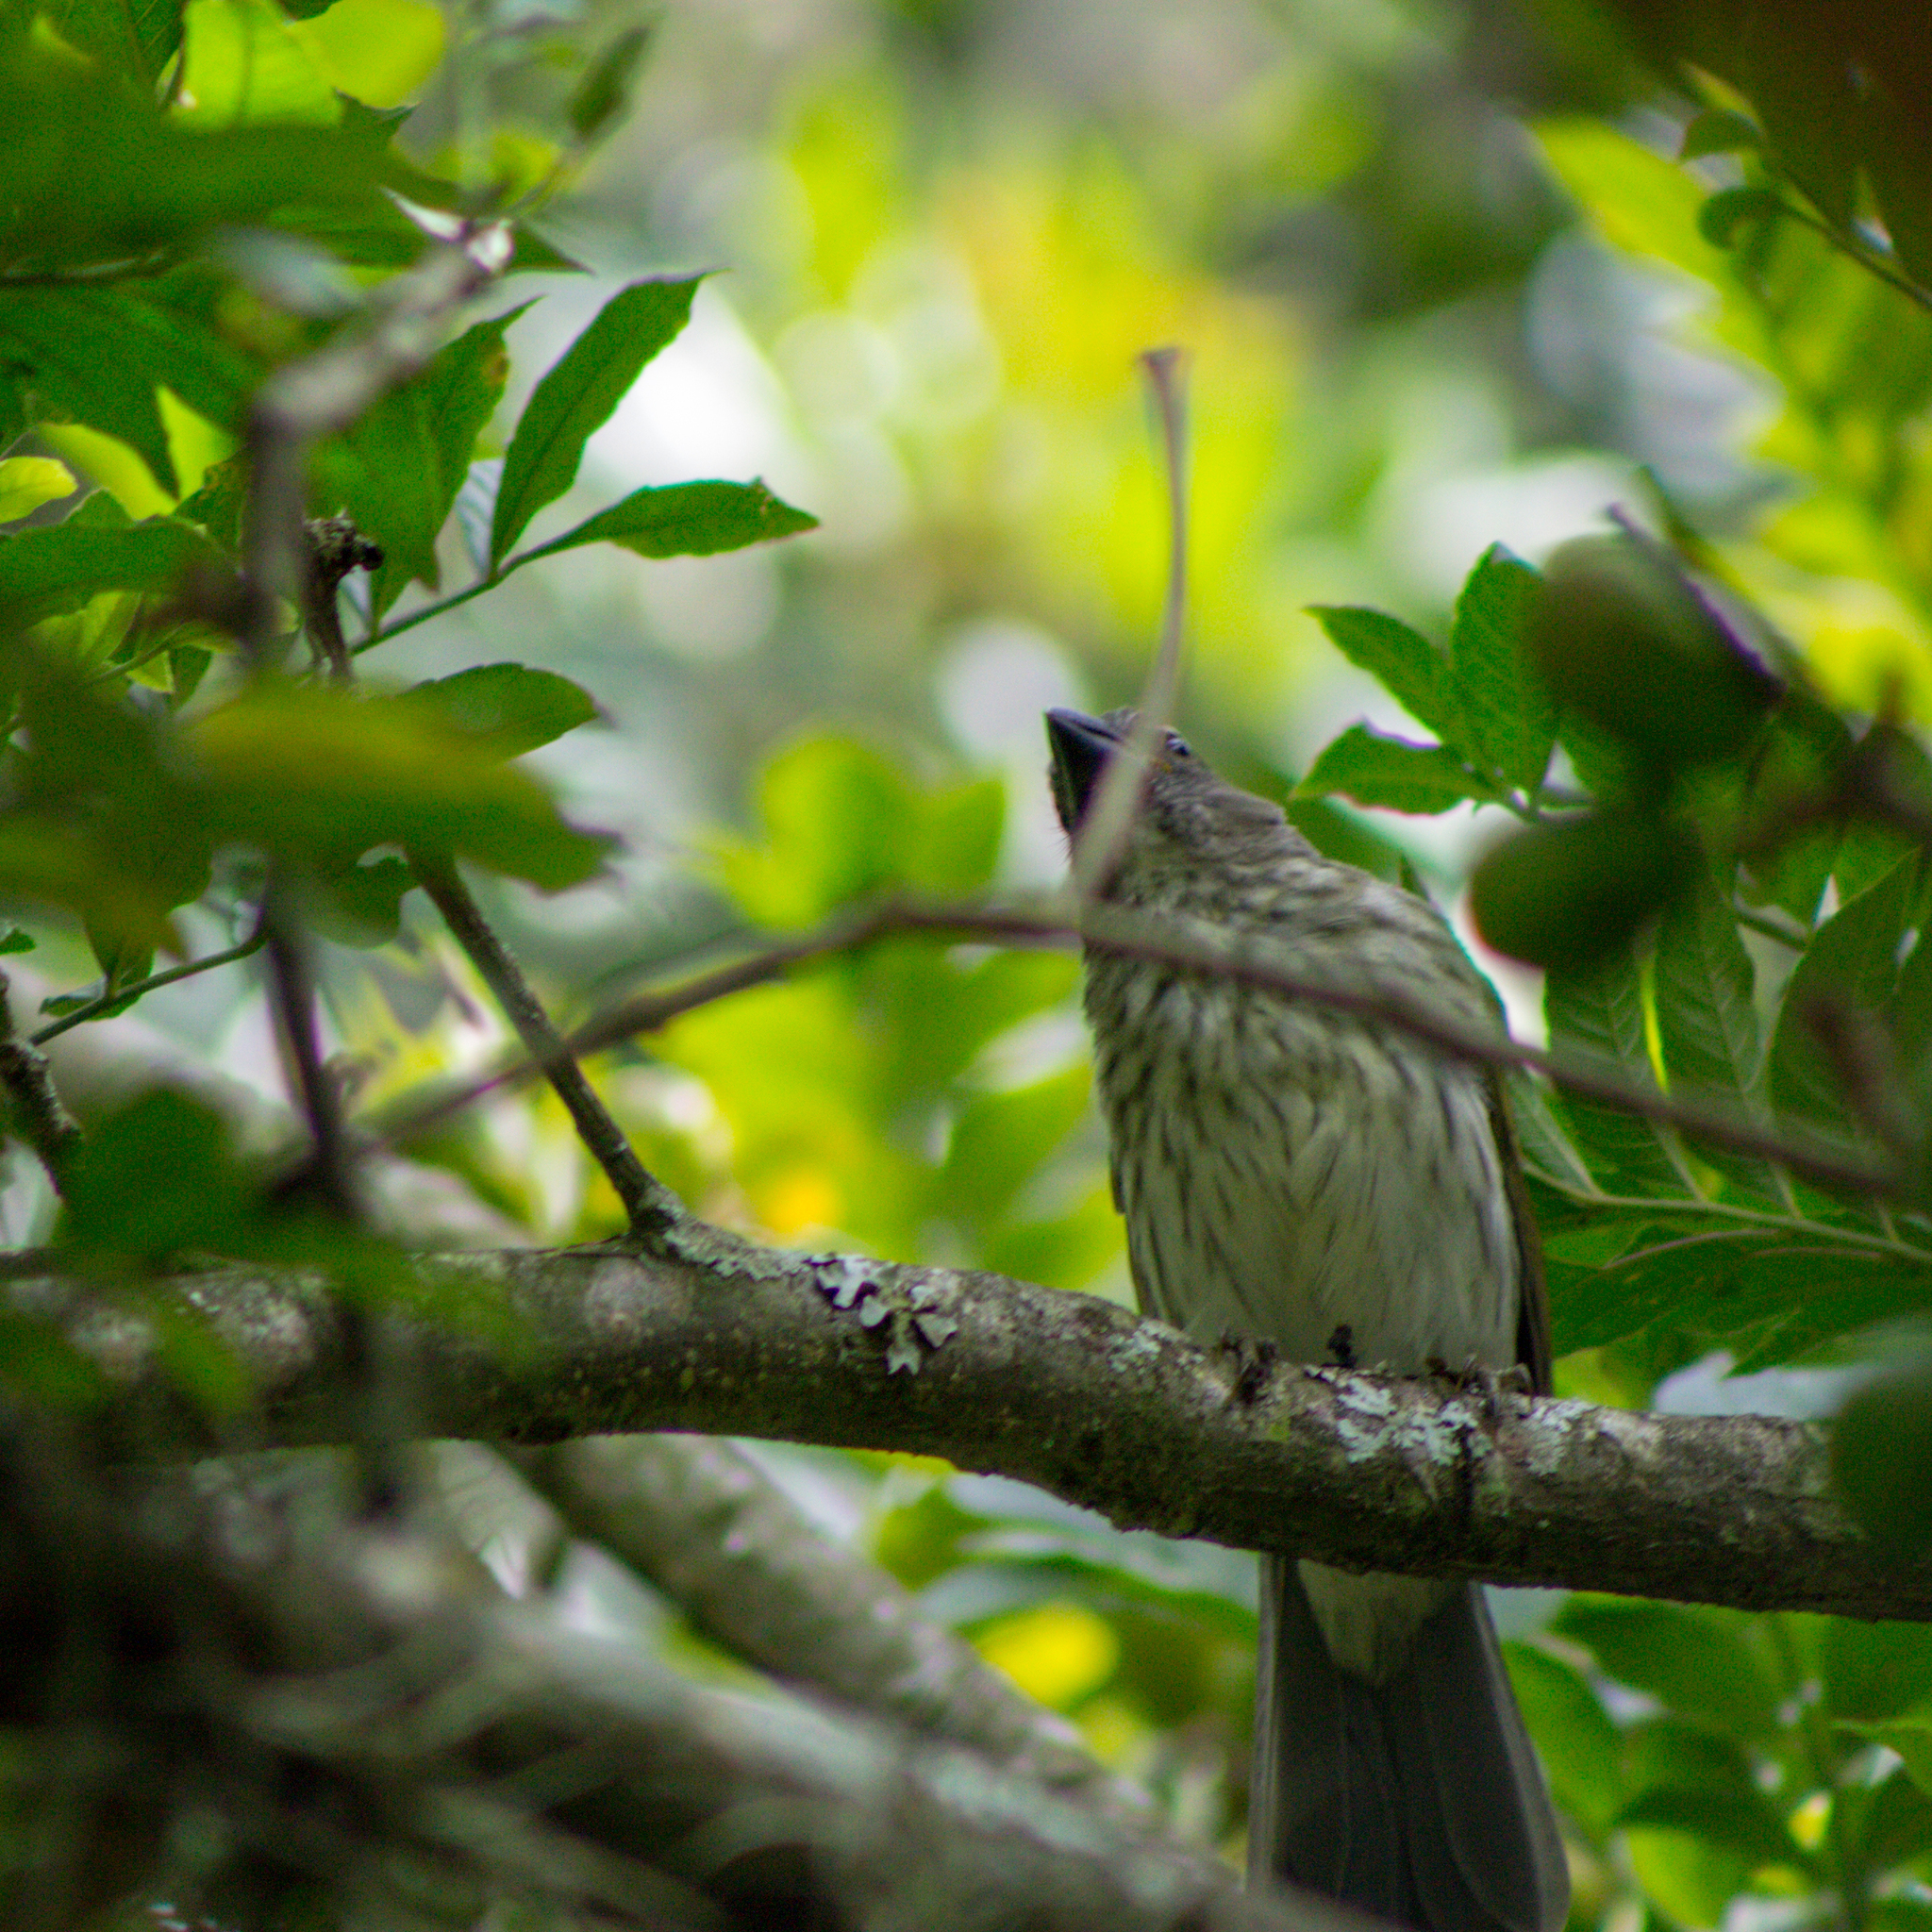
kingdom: Animalia
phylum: Chordata
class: Aves
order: Passeriformes
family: Thraupidae
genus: Saltator
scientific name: Saltator striatipectus
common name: Streaked saltator
